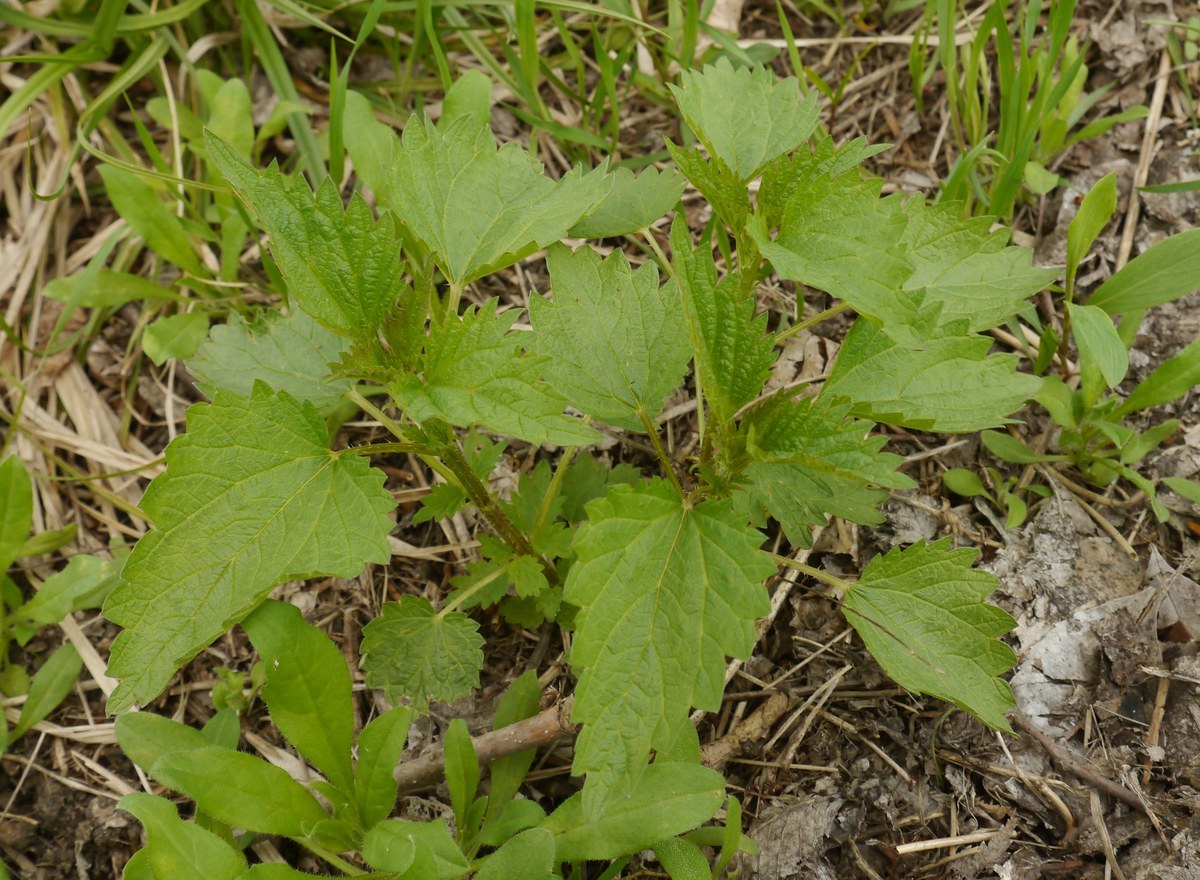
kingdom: Plantae
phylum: Tracheophyta
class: Magnoliopsida
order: Rosales
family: Urticaceae
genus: Urtica
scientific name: Urtica dioica
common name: Common nettle
